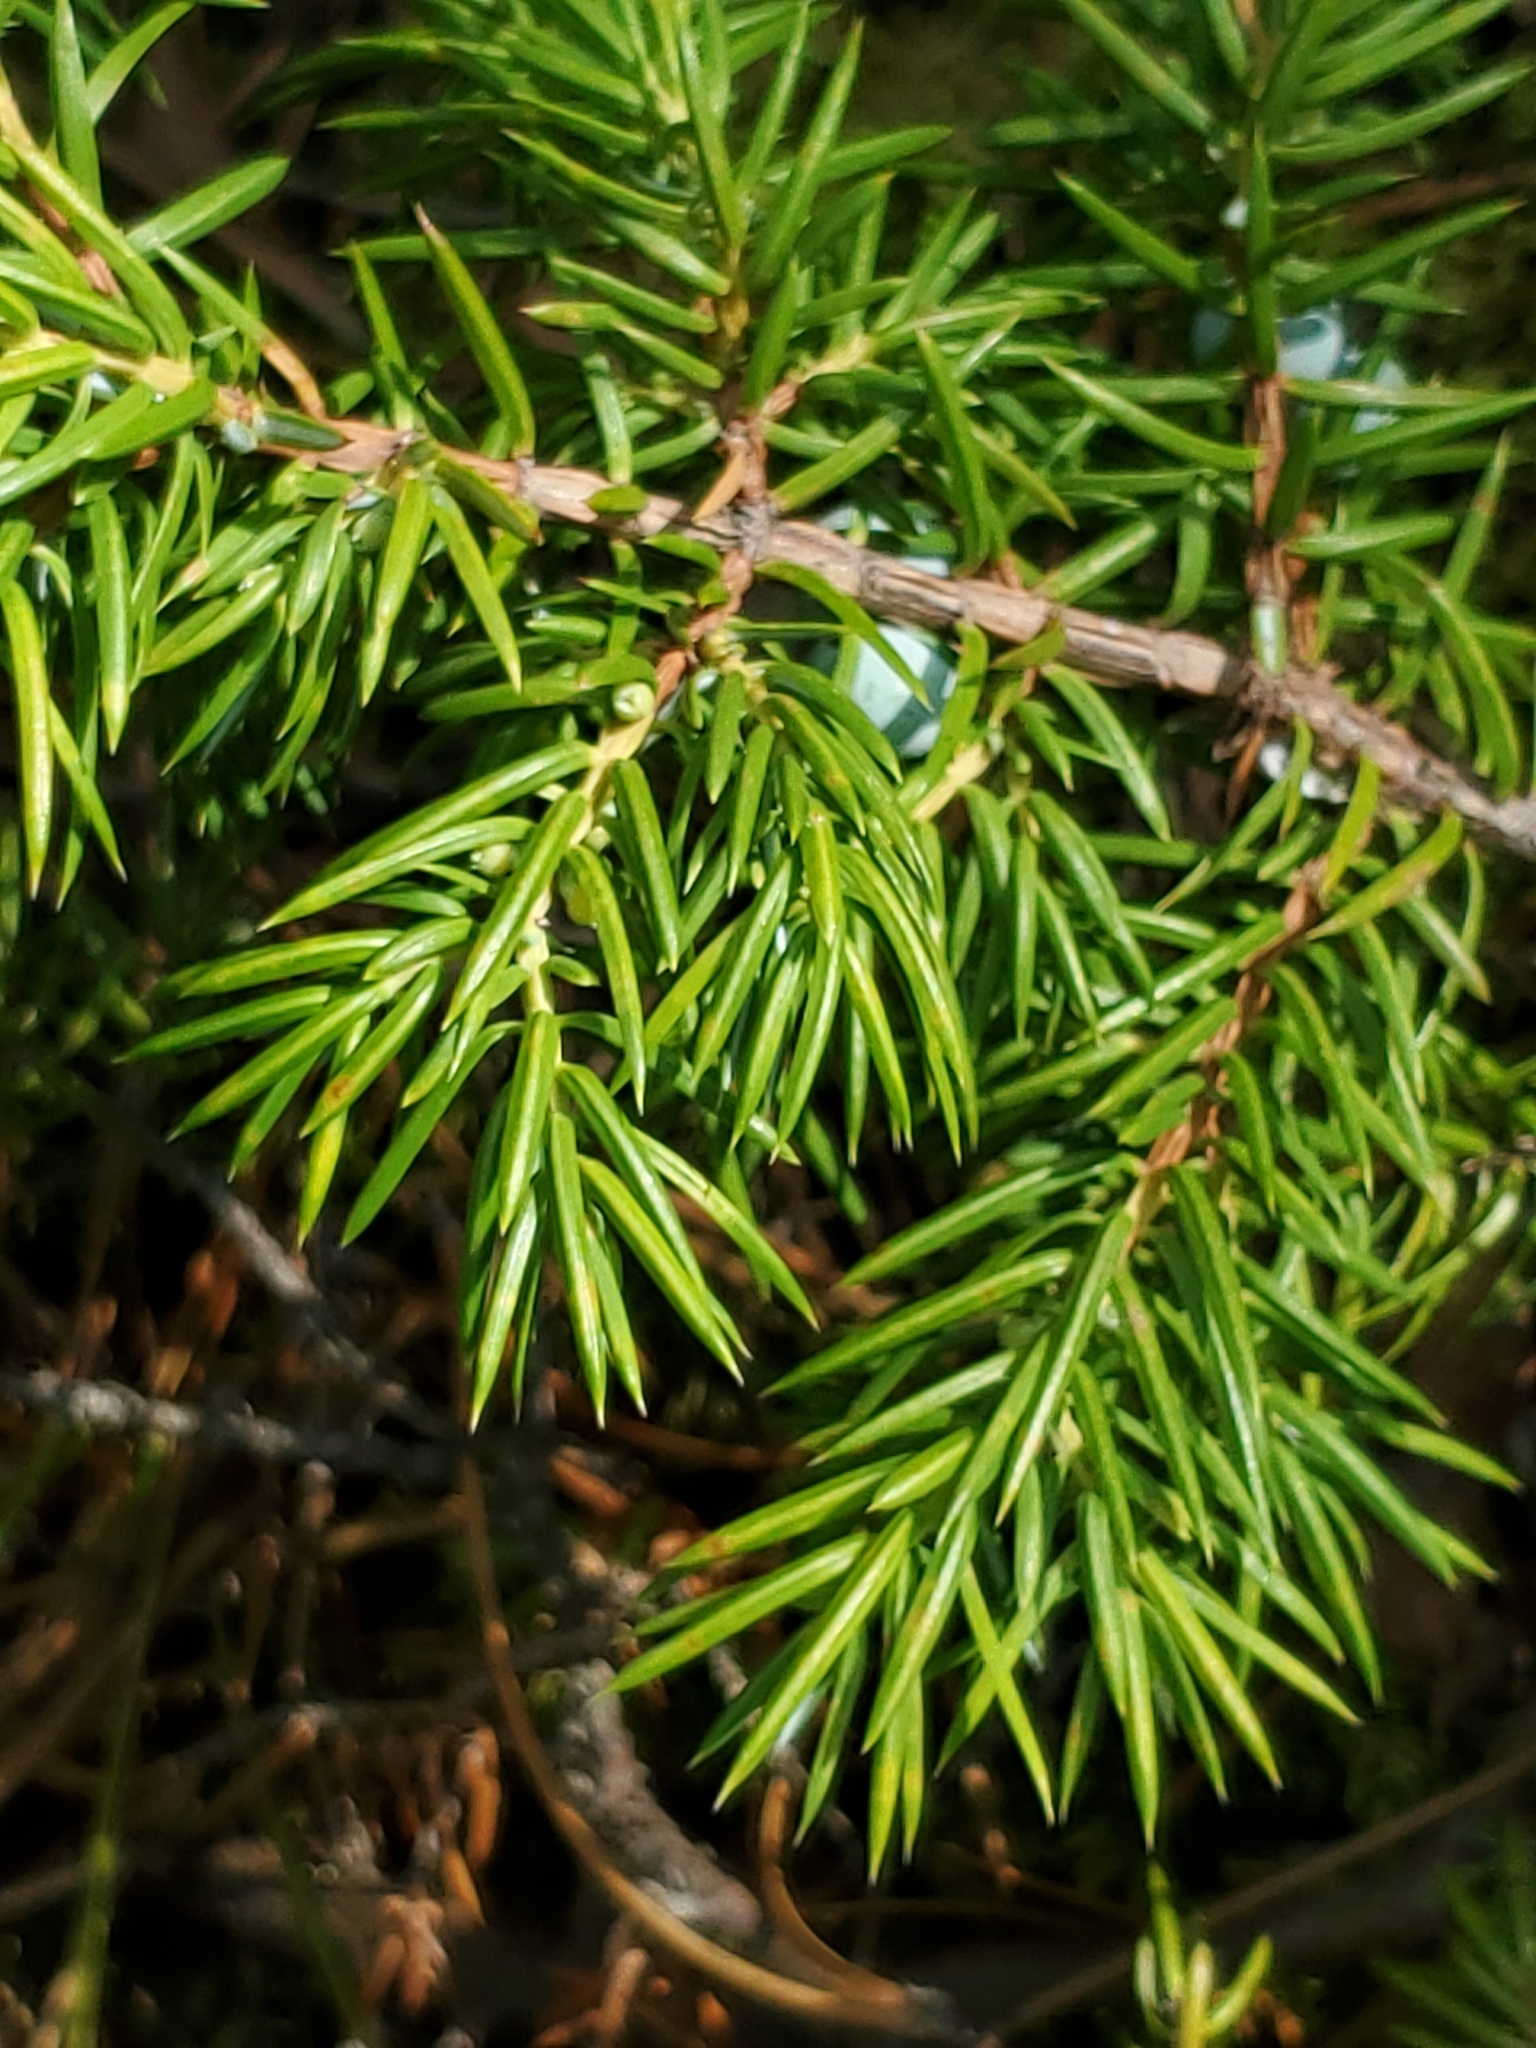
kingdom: Plantae
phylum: Tracheophyta
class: Pinopsida
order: Pinales
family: Cupressaceae
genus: Juniperus
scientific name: Juniperus communis
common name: Common juniper
